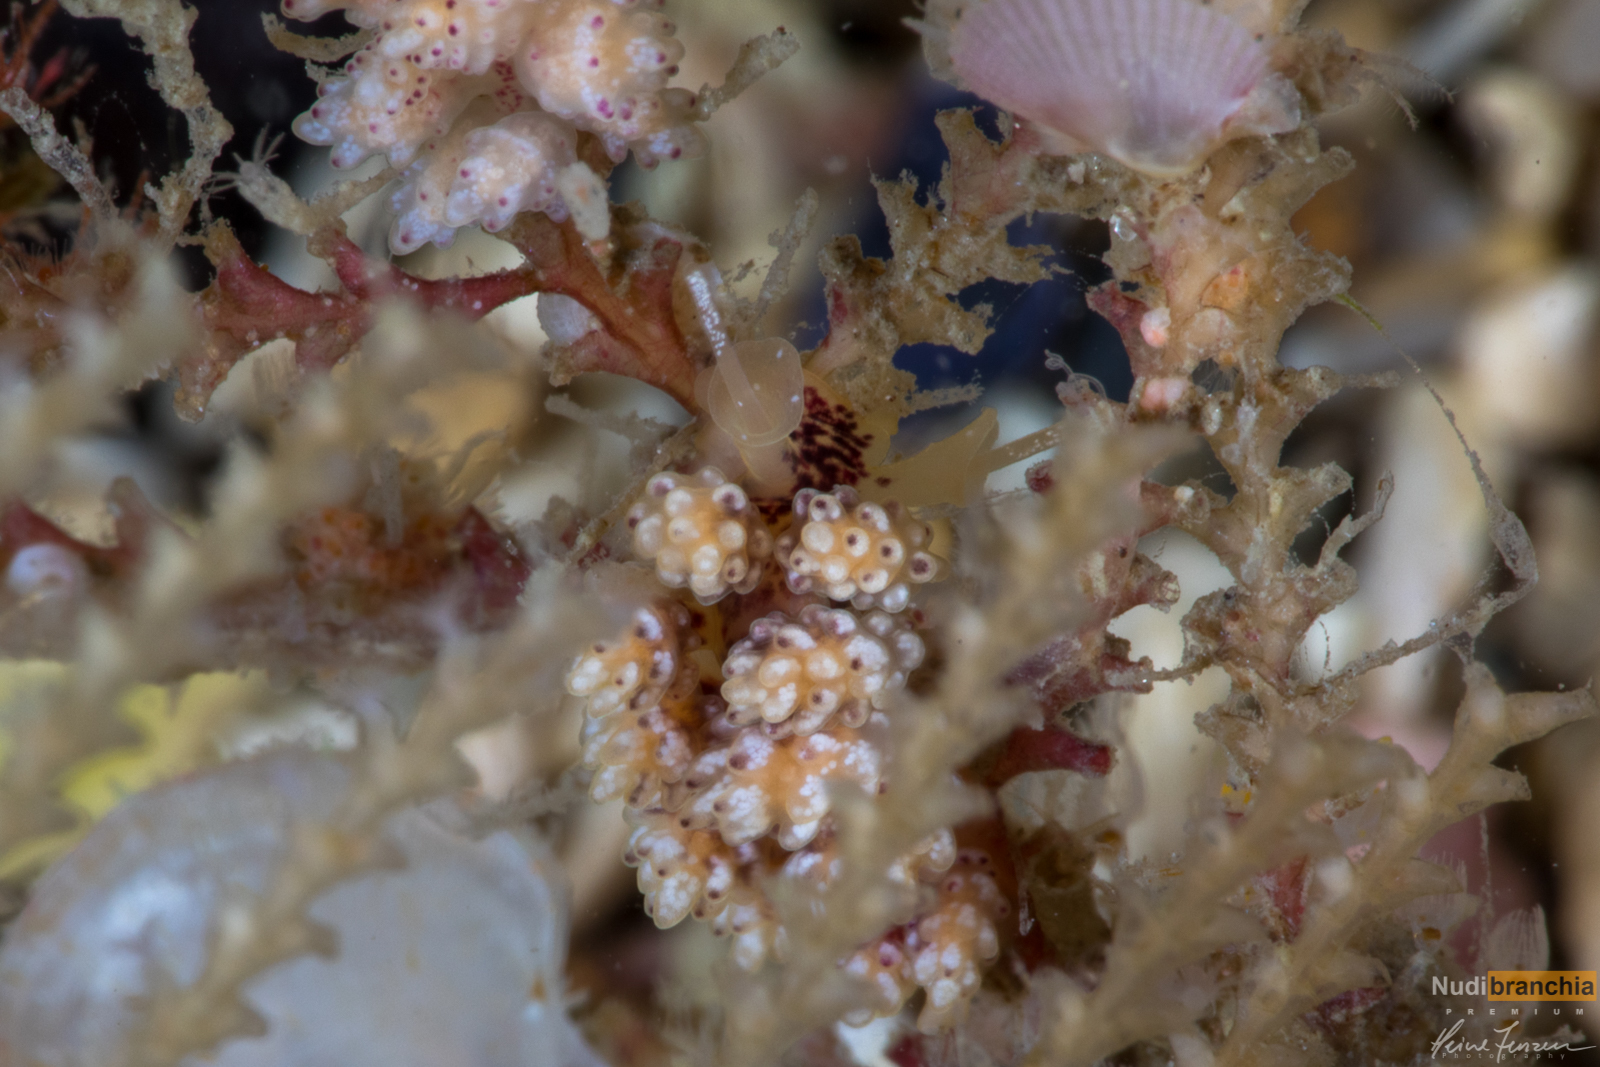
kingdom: Animalia
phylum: Mollusca
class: Gastropoda
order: Nudibranchia
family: Dotidae
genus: Doto
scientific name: Doto coronata
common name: Coronate doto
